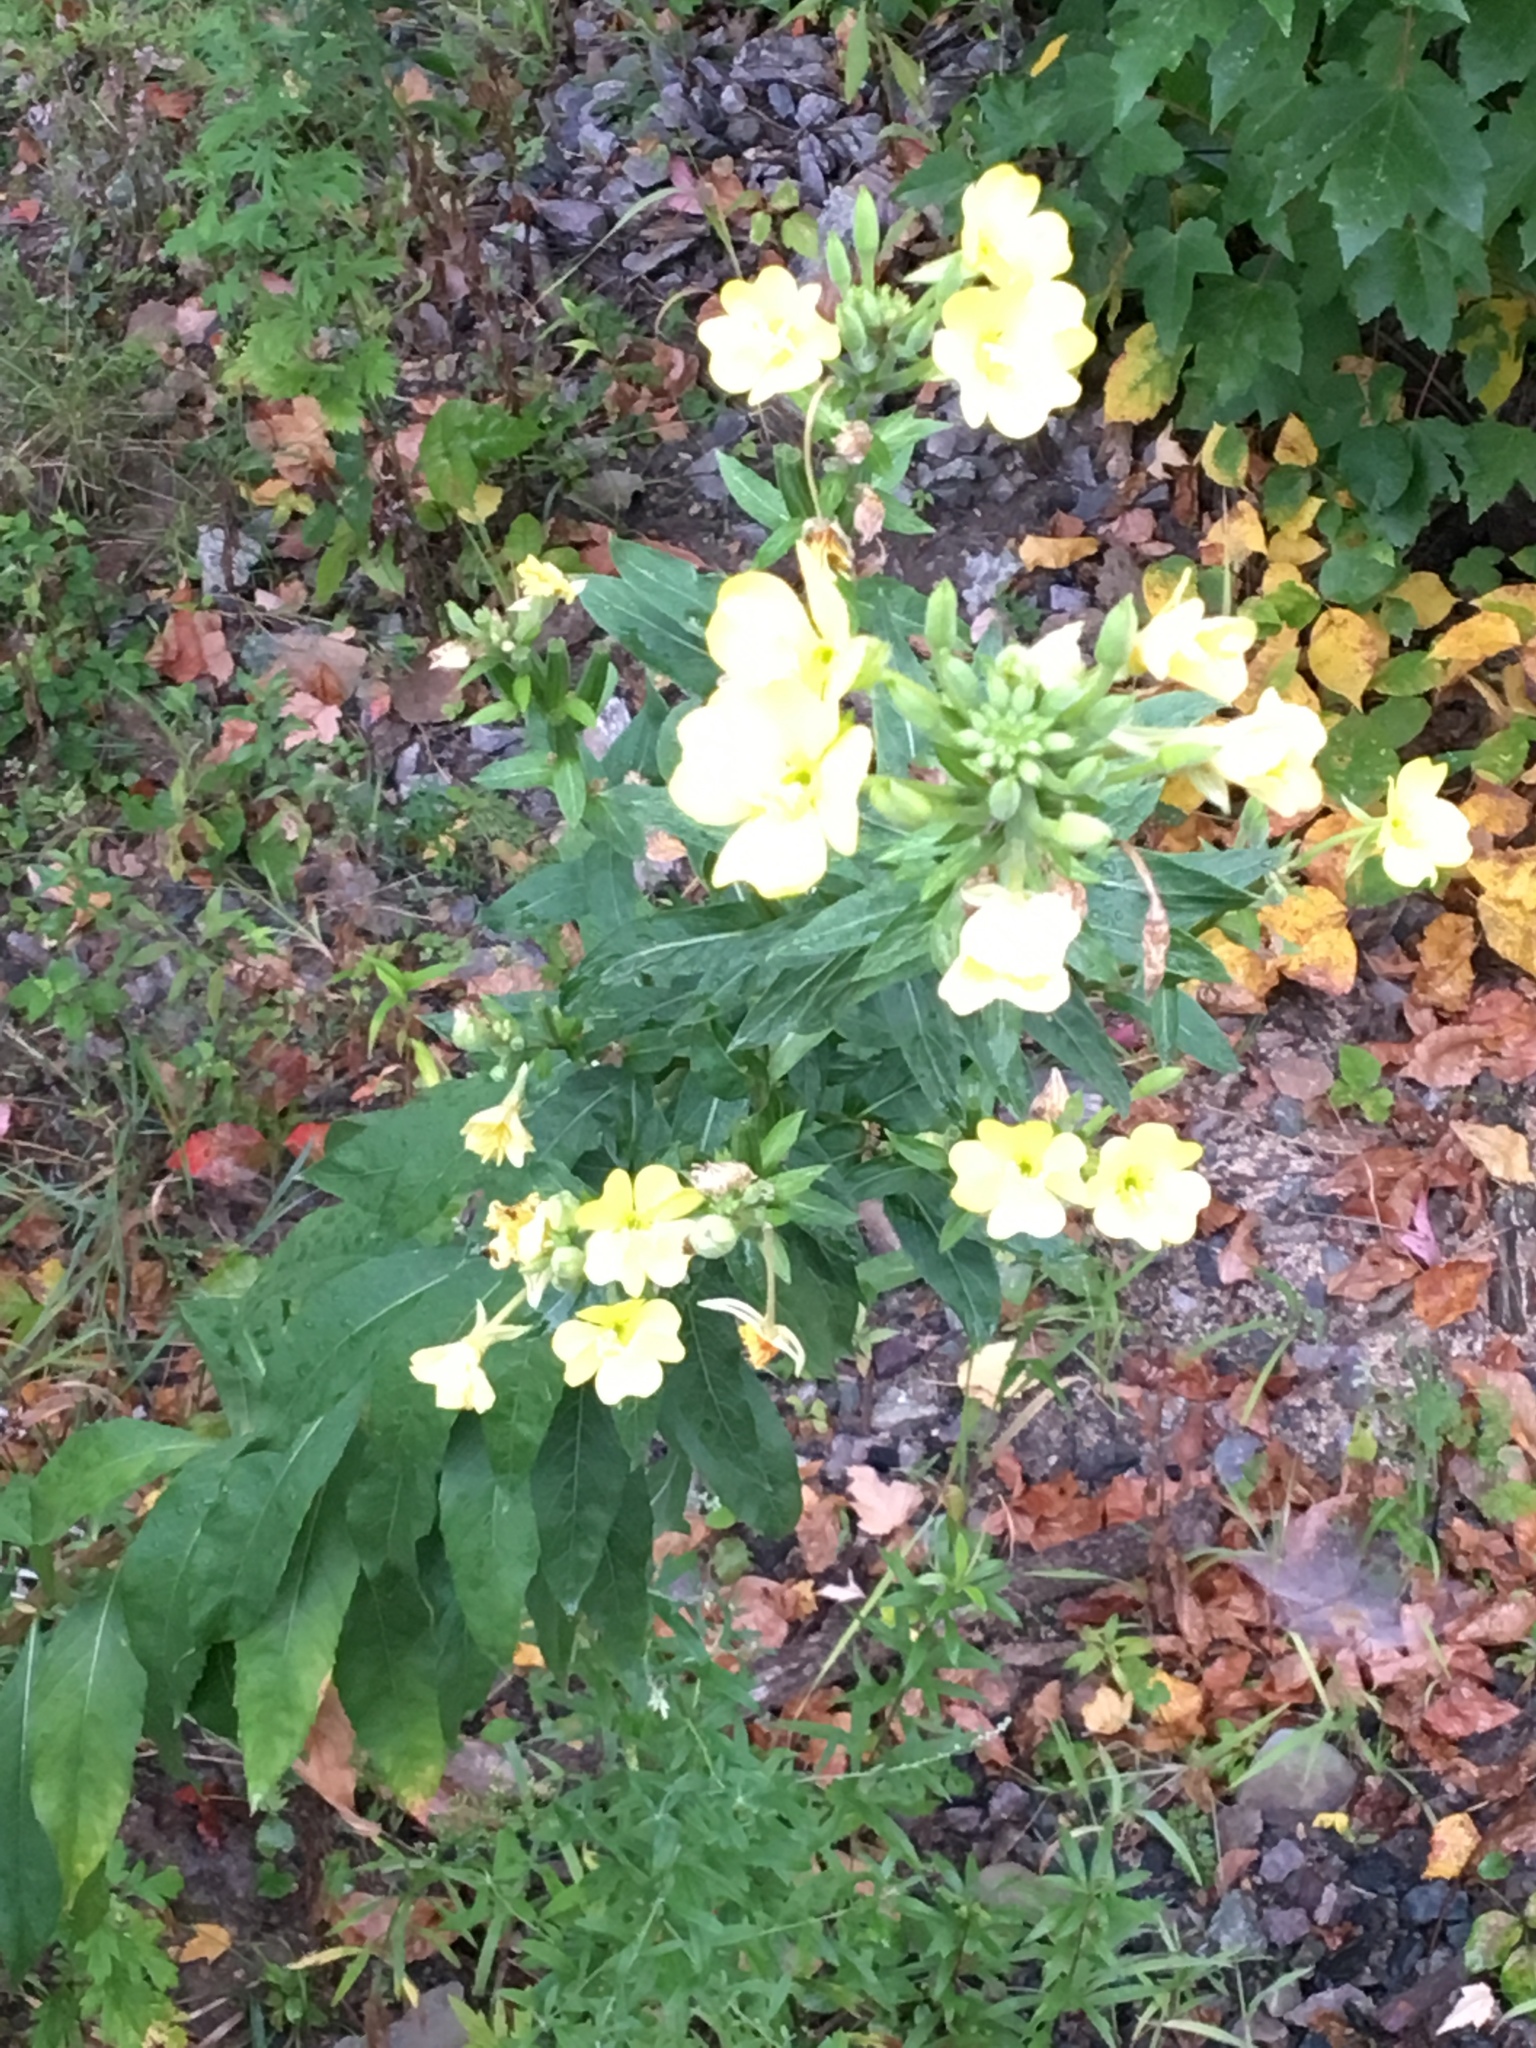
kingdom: Plantae
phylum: Tracheophyta
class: Magnoliopsida
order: Myrtales
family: Onagraceae
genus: Oenothera
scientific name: Oenothera biennis
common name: Common evening-primrose
